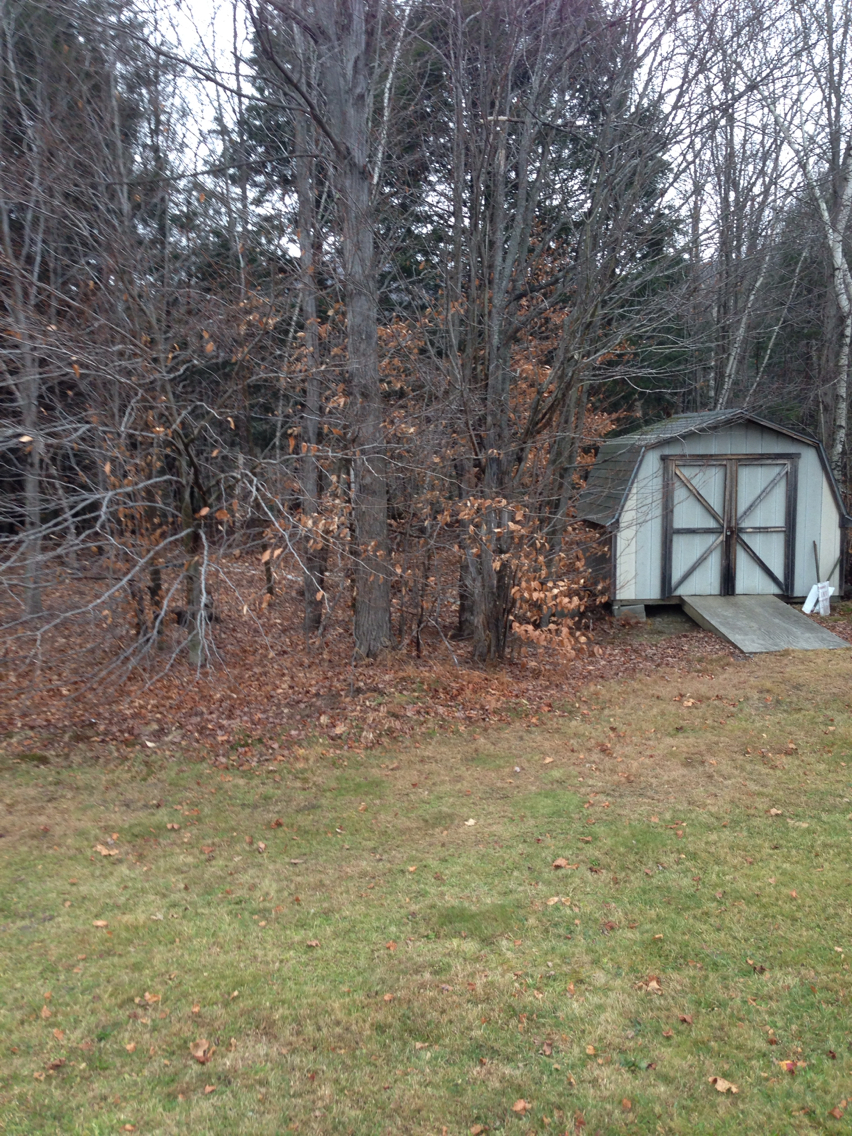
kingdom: Plantae
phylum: Tracheophyta
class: Magnoliopsida
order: Fagales
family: Fagaceae
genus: Fagus
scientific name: Fagus grandifolia
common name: American beech
